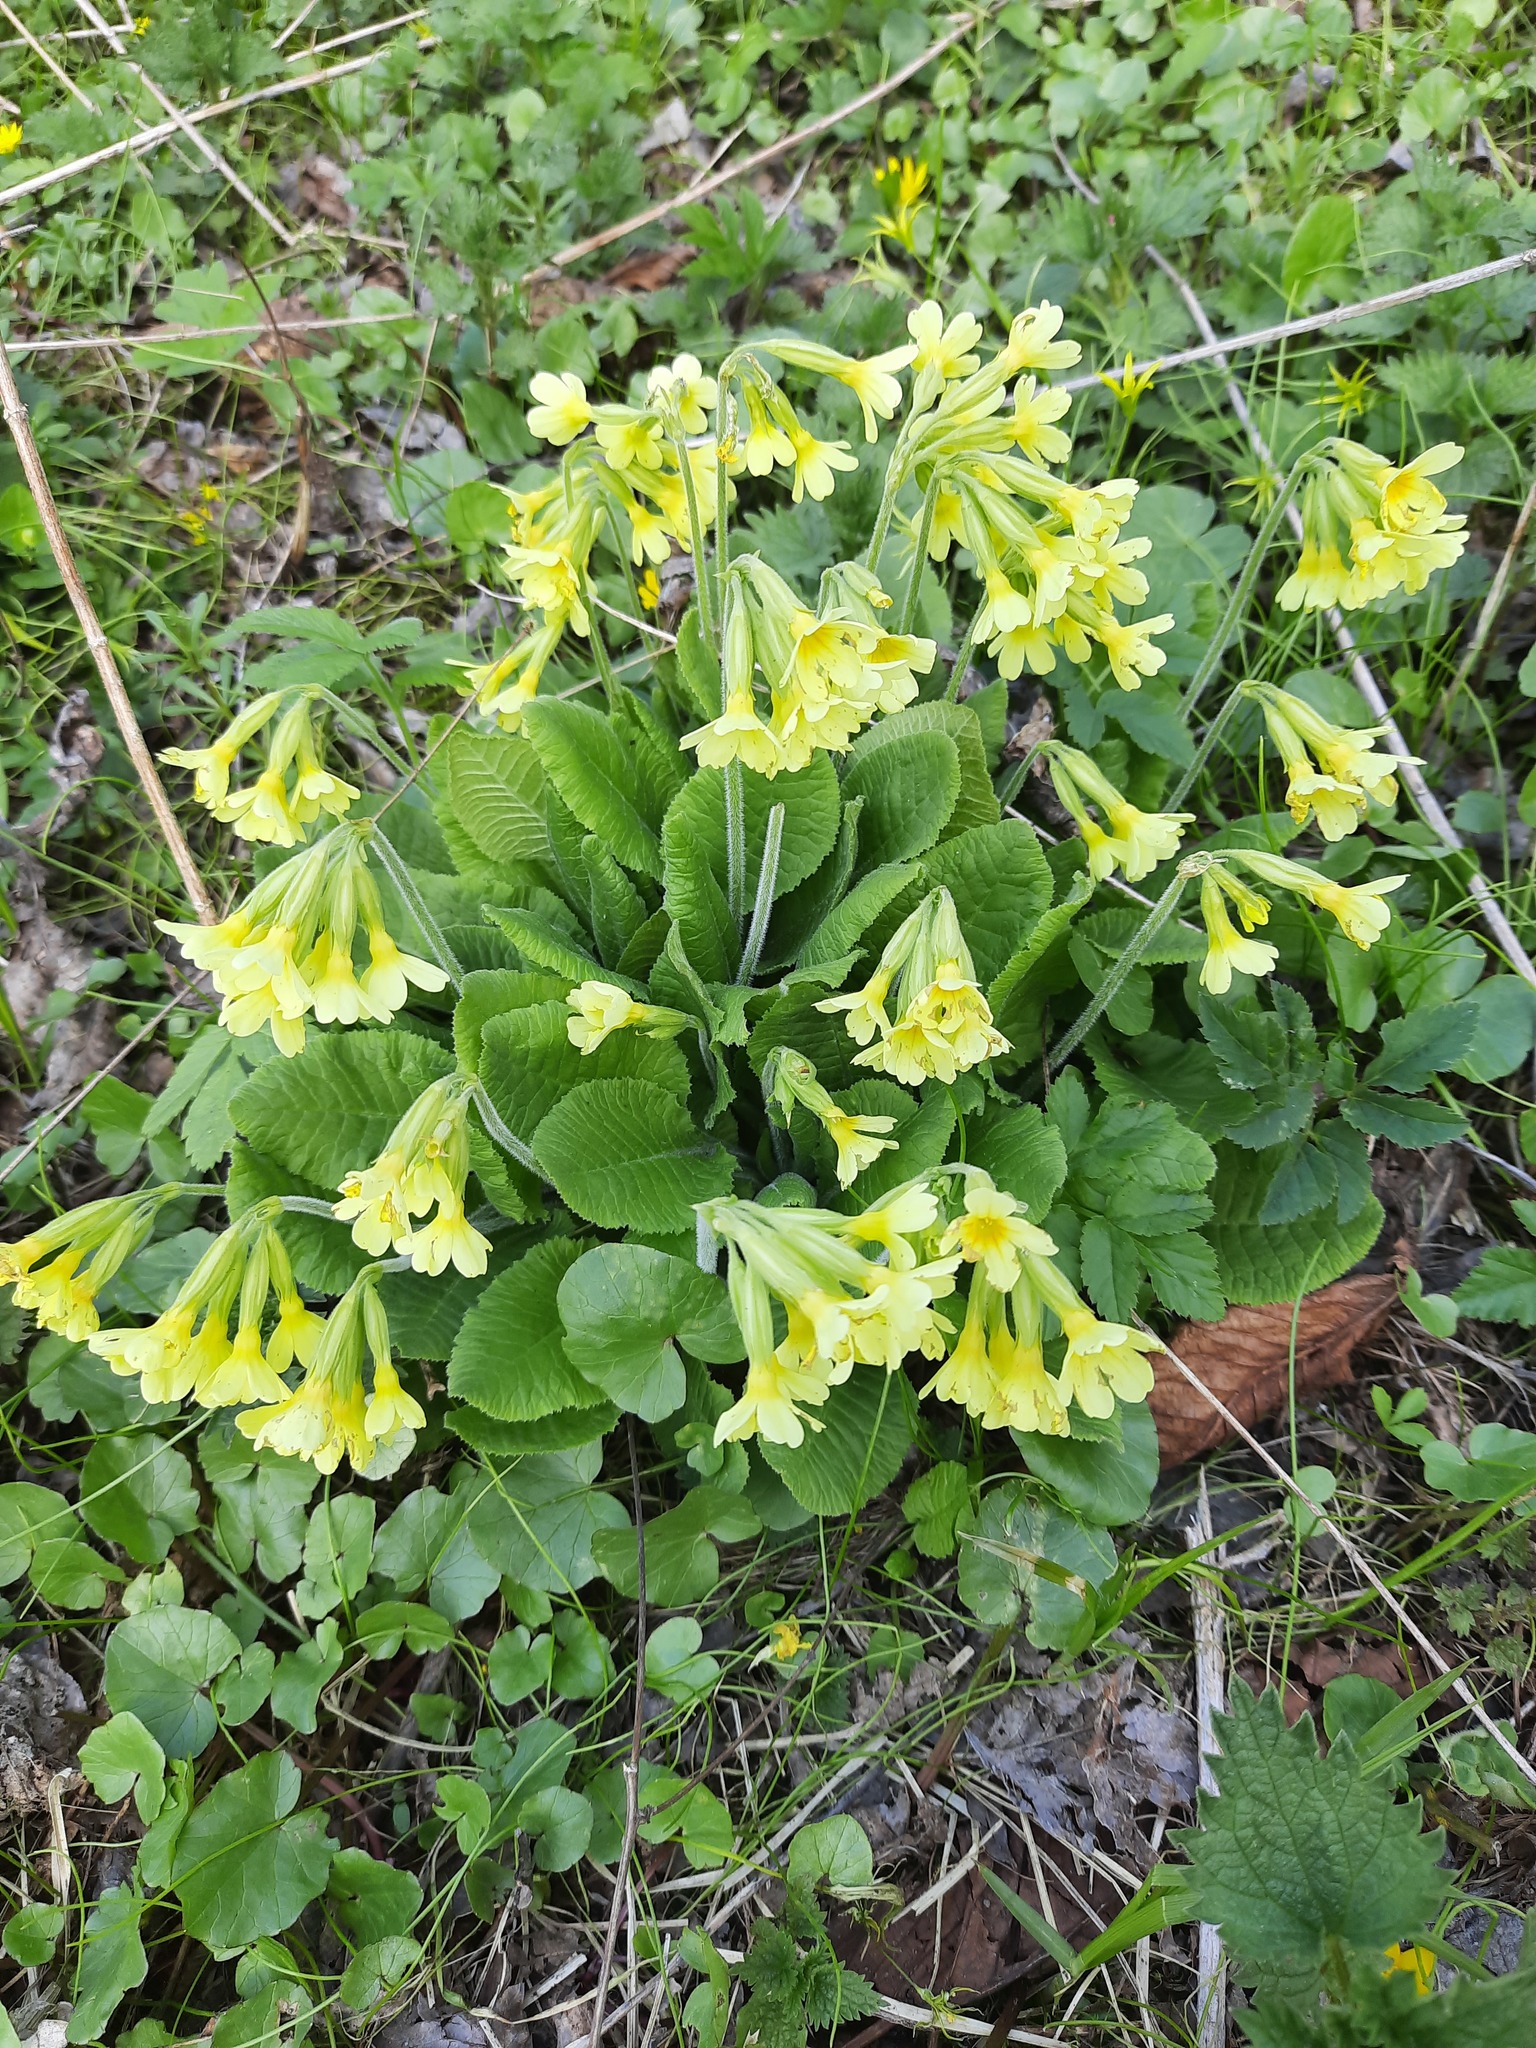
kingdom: Plantae
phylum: Tracheophyta
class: Magnoliopsida
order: Ericales
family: Primulaceae
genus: Primula
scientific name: Primula elatior
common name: Oxlip
